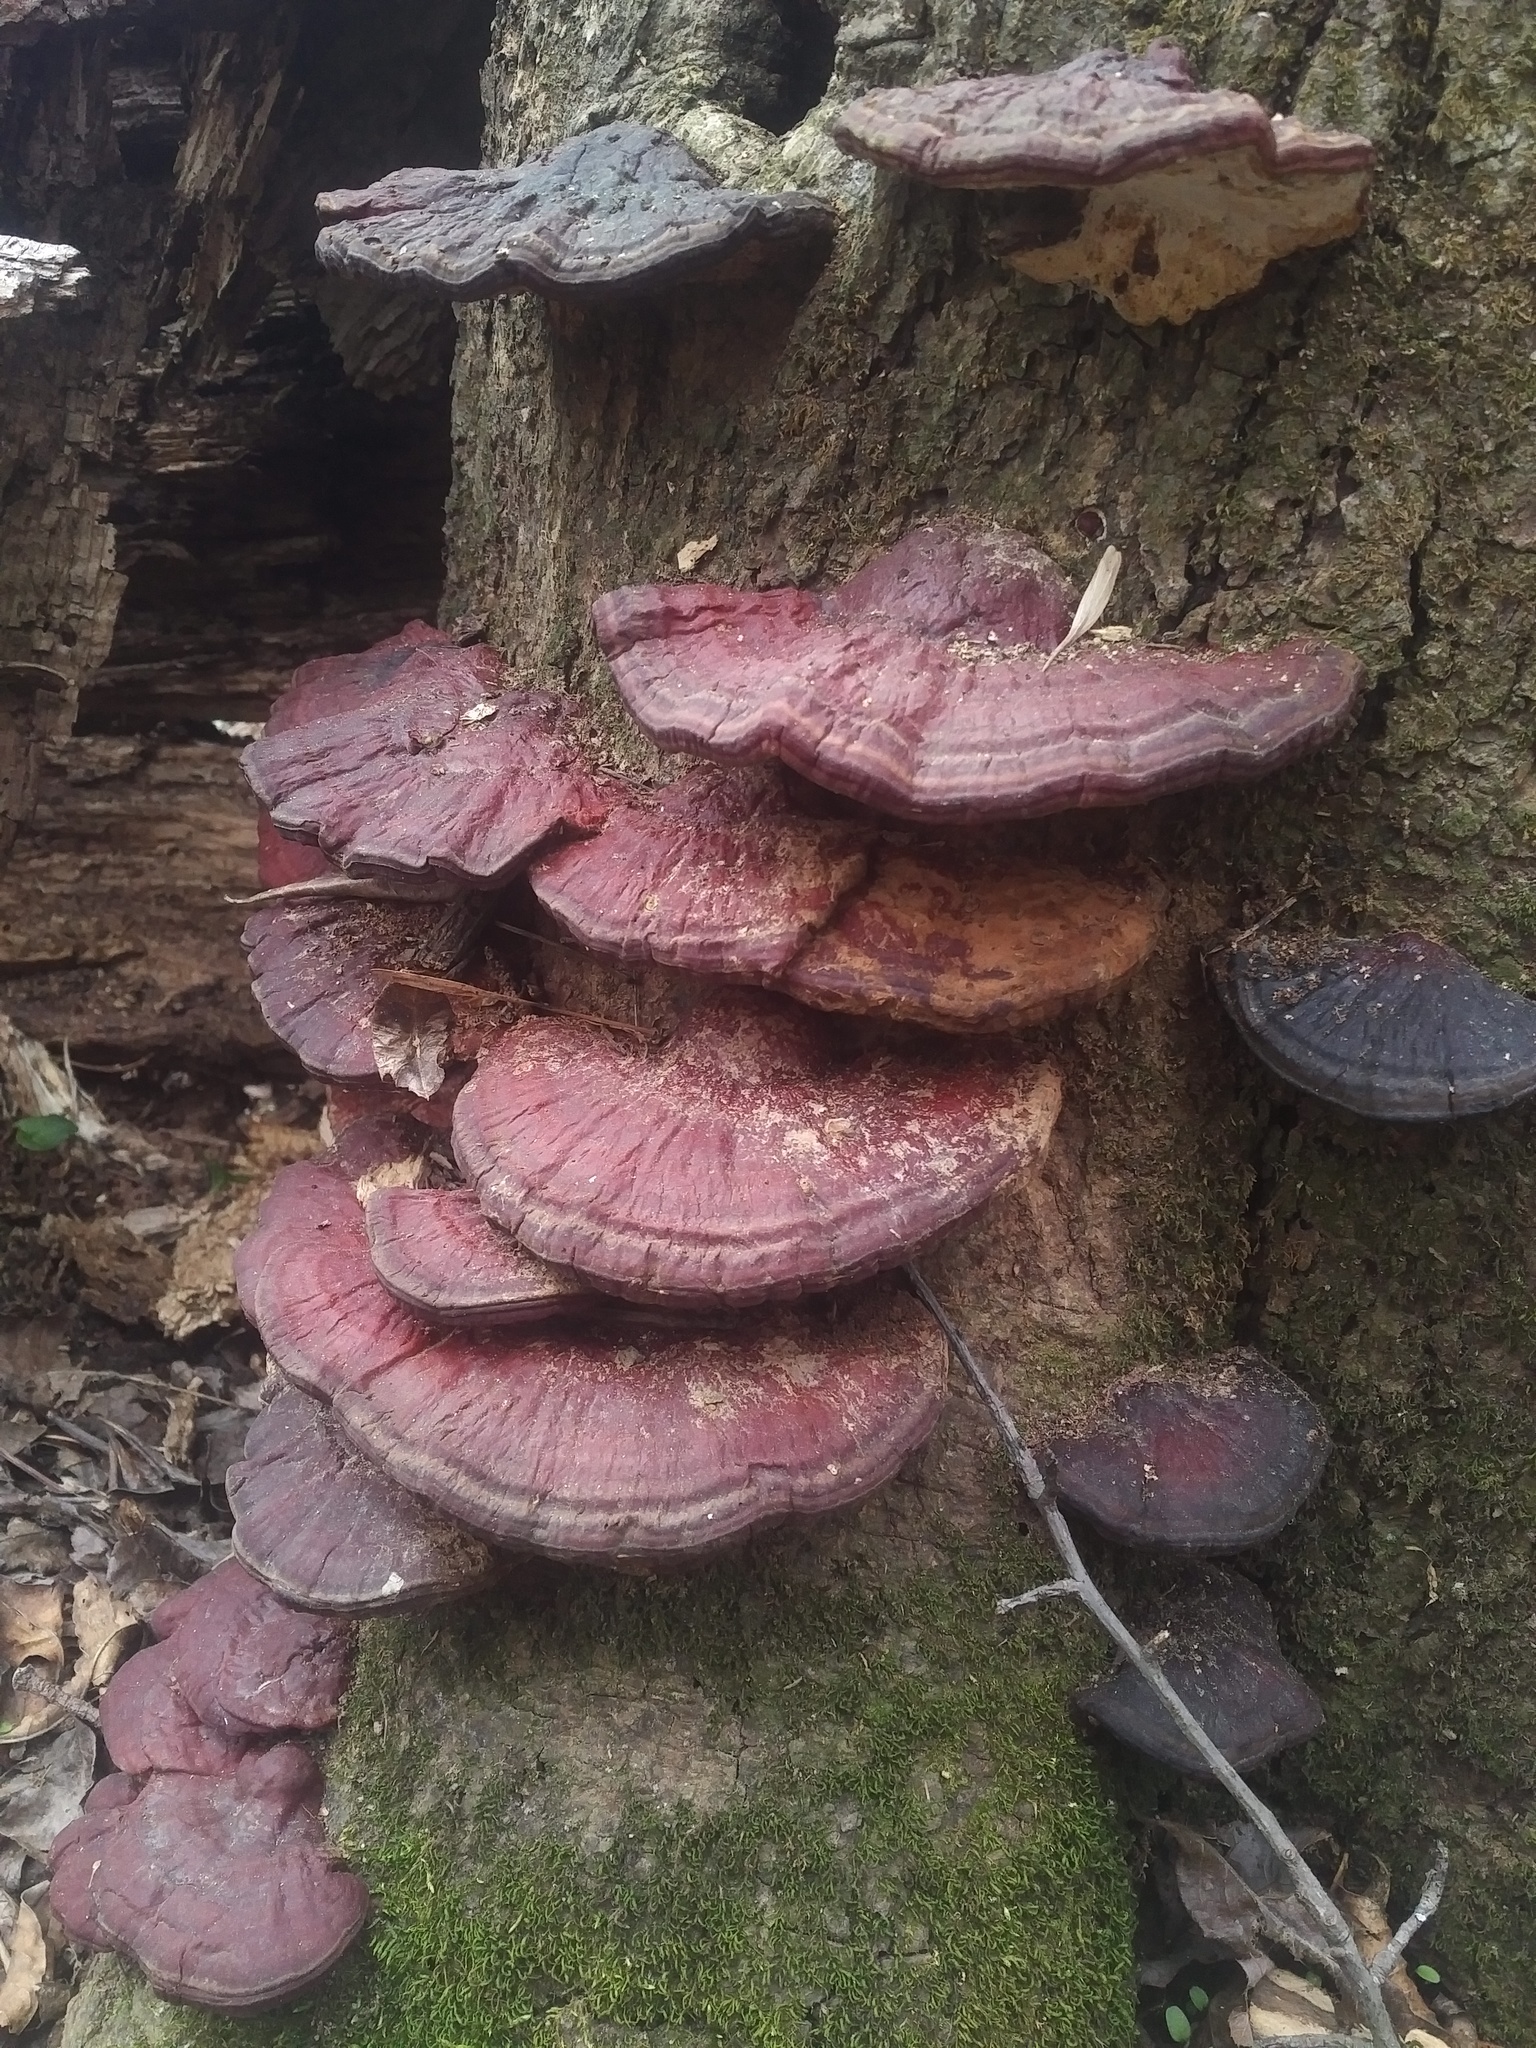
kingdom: Fungi
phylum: Basidiomycota
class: Agaricomycetes
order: Polyporales
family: Polyporaceae
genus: Ganoderma
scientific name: Ganoderma resinaceum
